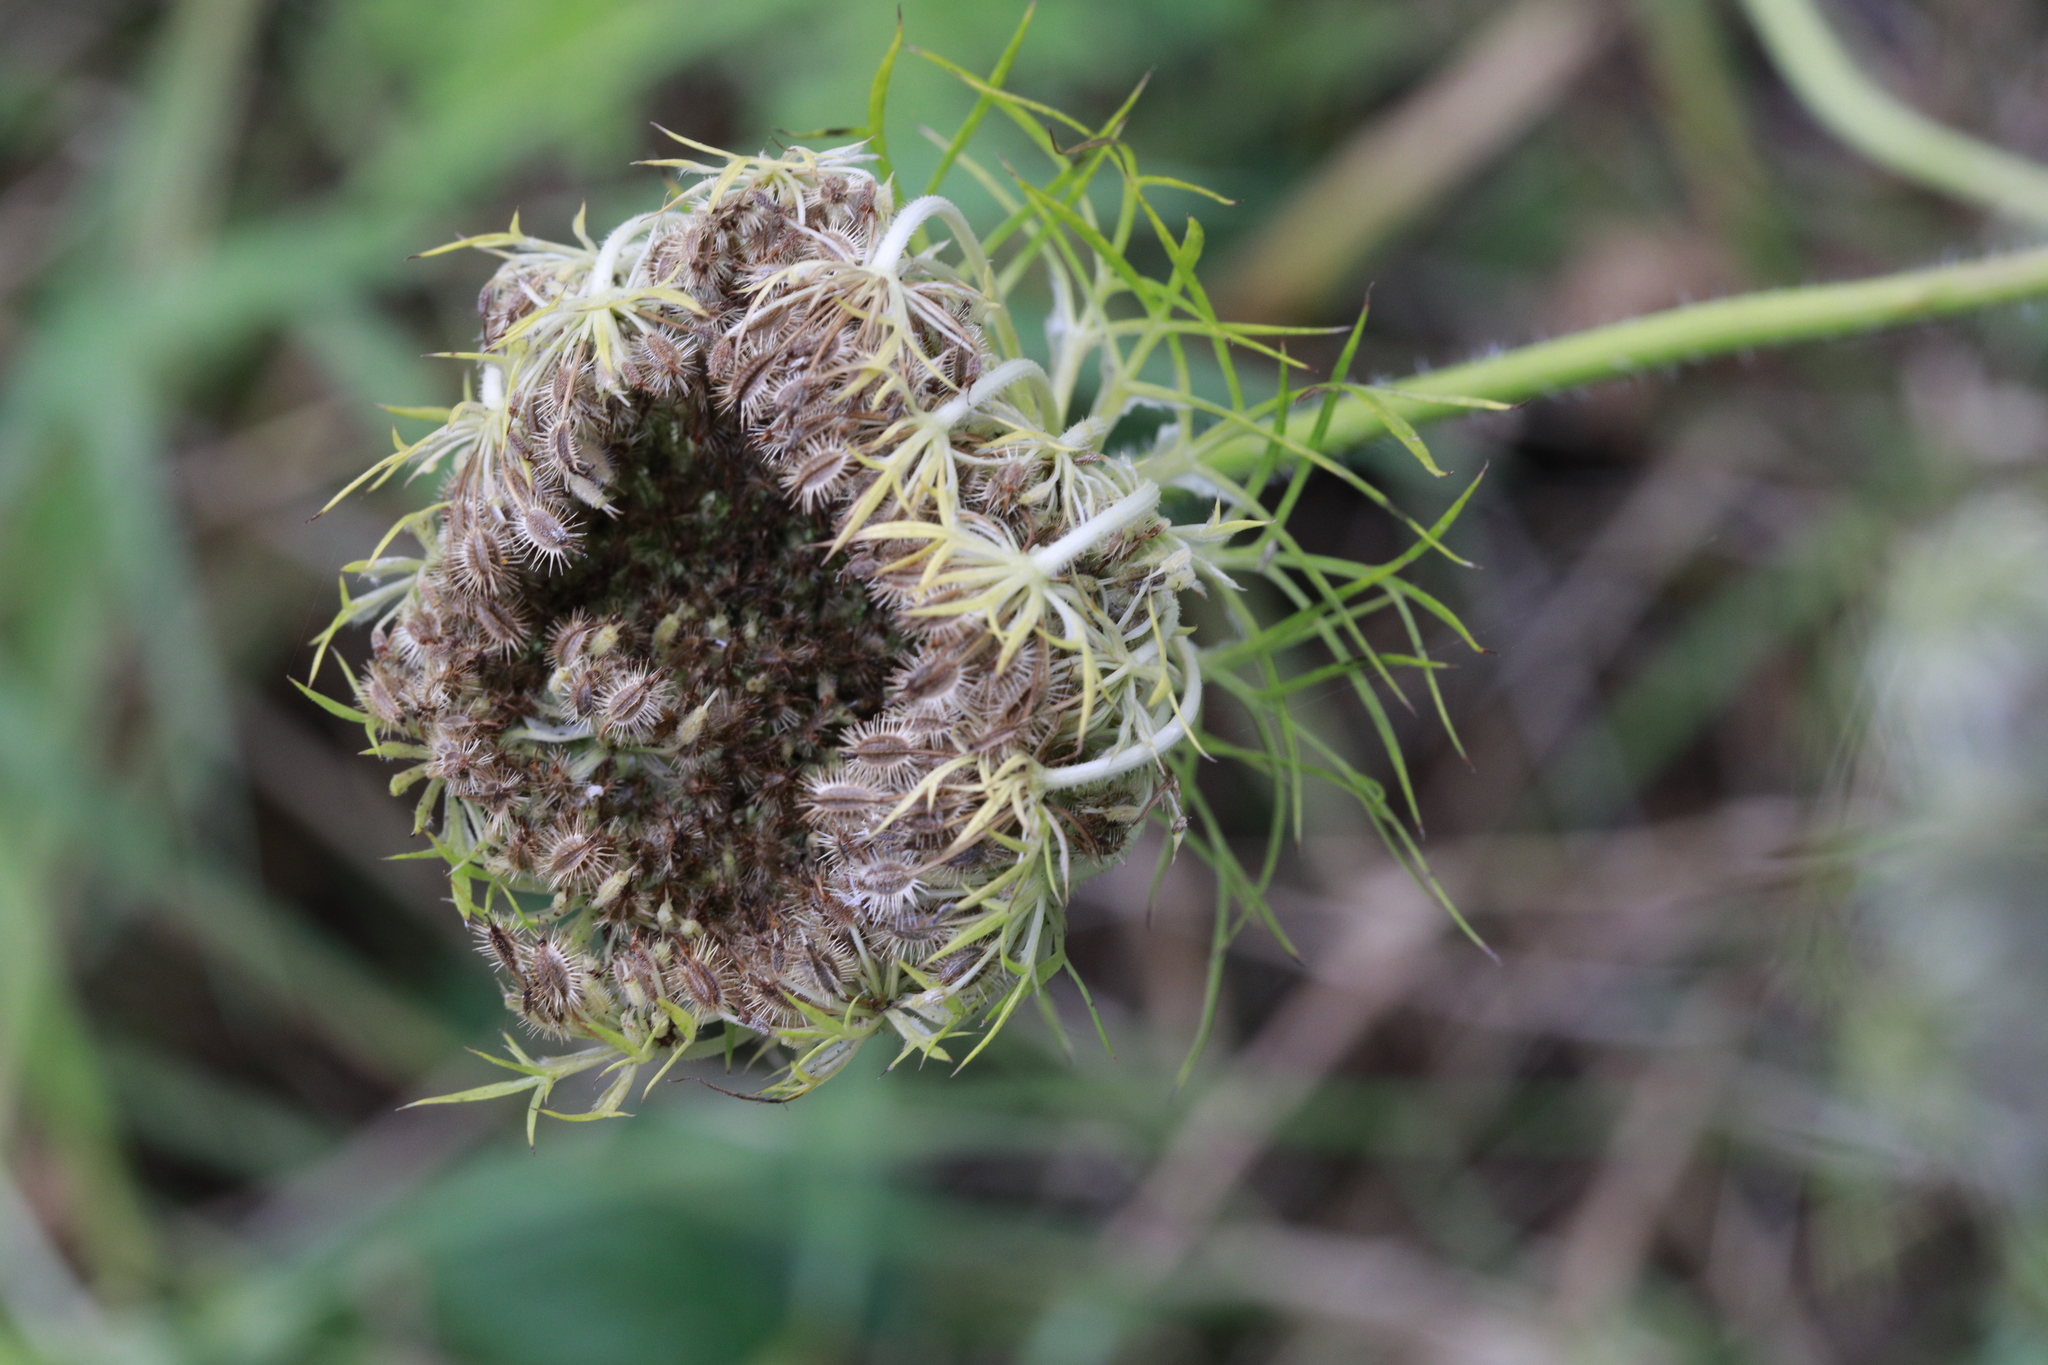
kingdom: Plantae
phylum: Tracheophyta
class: Magnoliopsida
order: Apiales
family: Apiaceae
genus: Daucus
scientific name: Daucus carota
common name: Wild carrot
